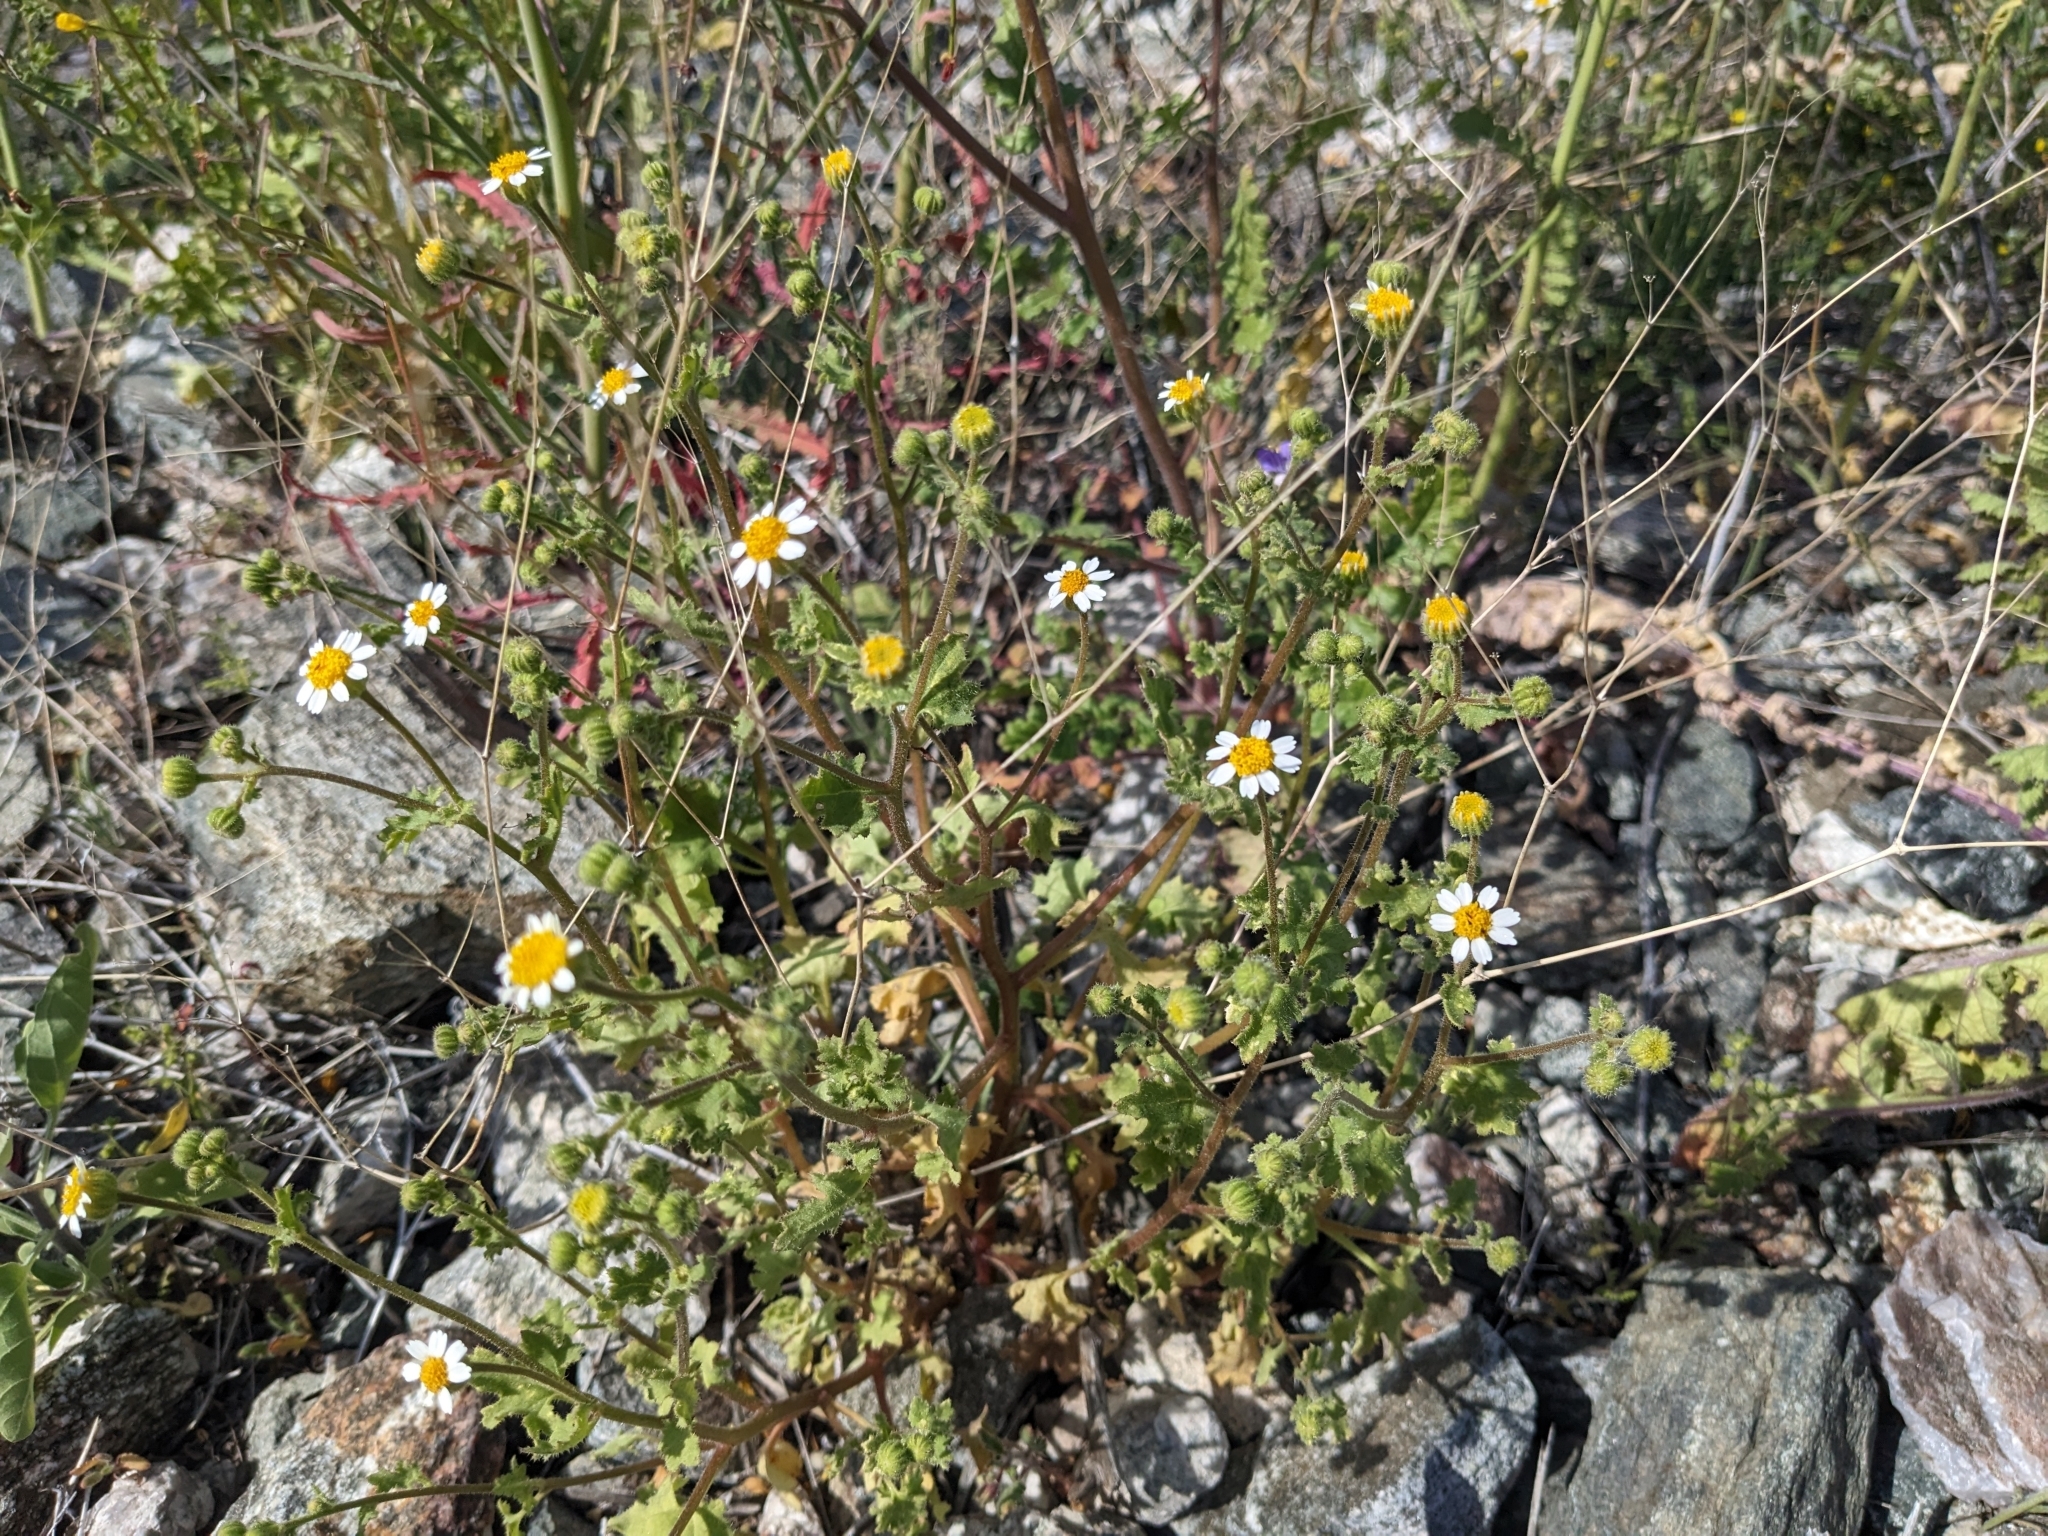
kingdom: Plantae
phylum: Tracheophyta
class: Magnoliopsida
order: Asterales
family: Asteraceae
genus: Laphamia
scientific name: Laphamia emoryi
